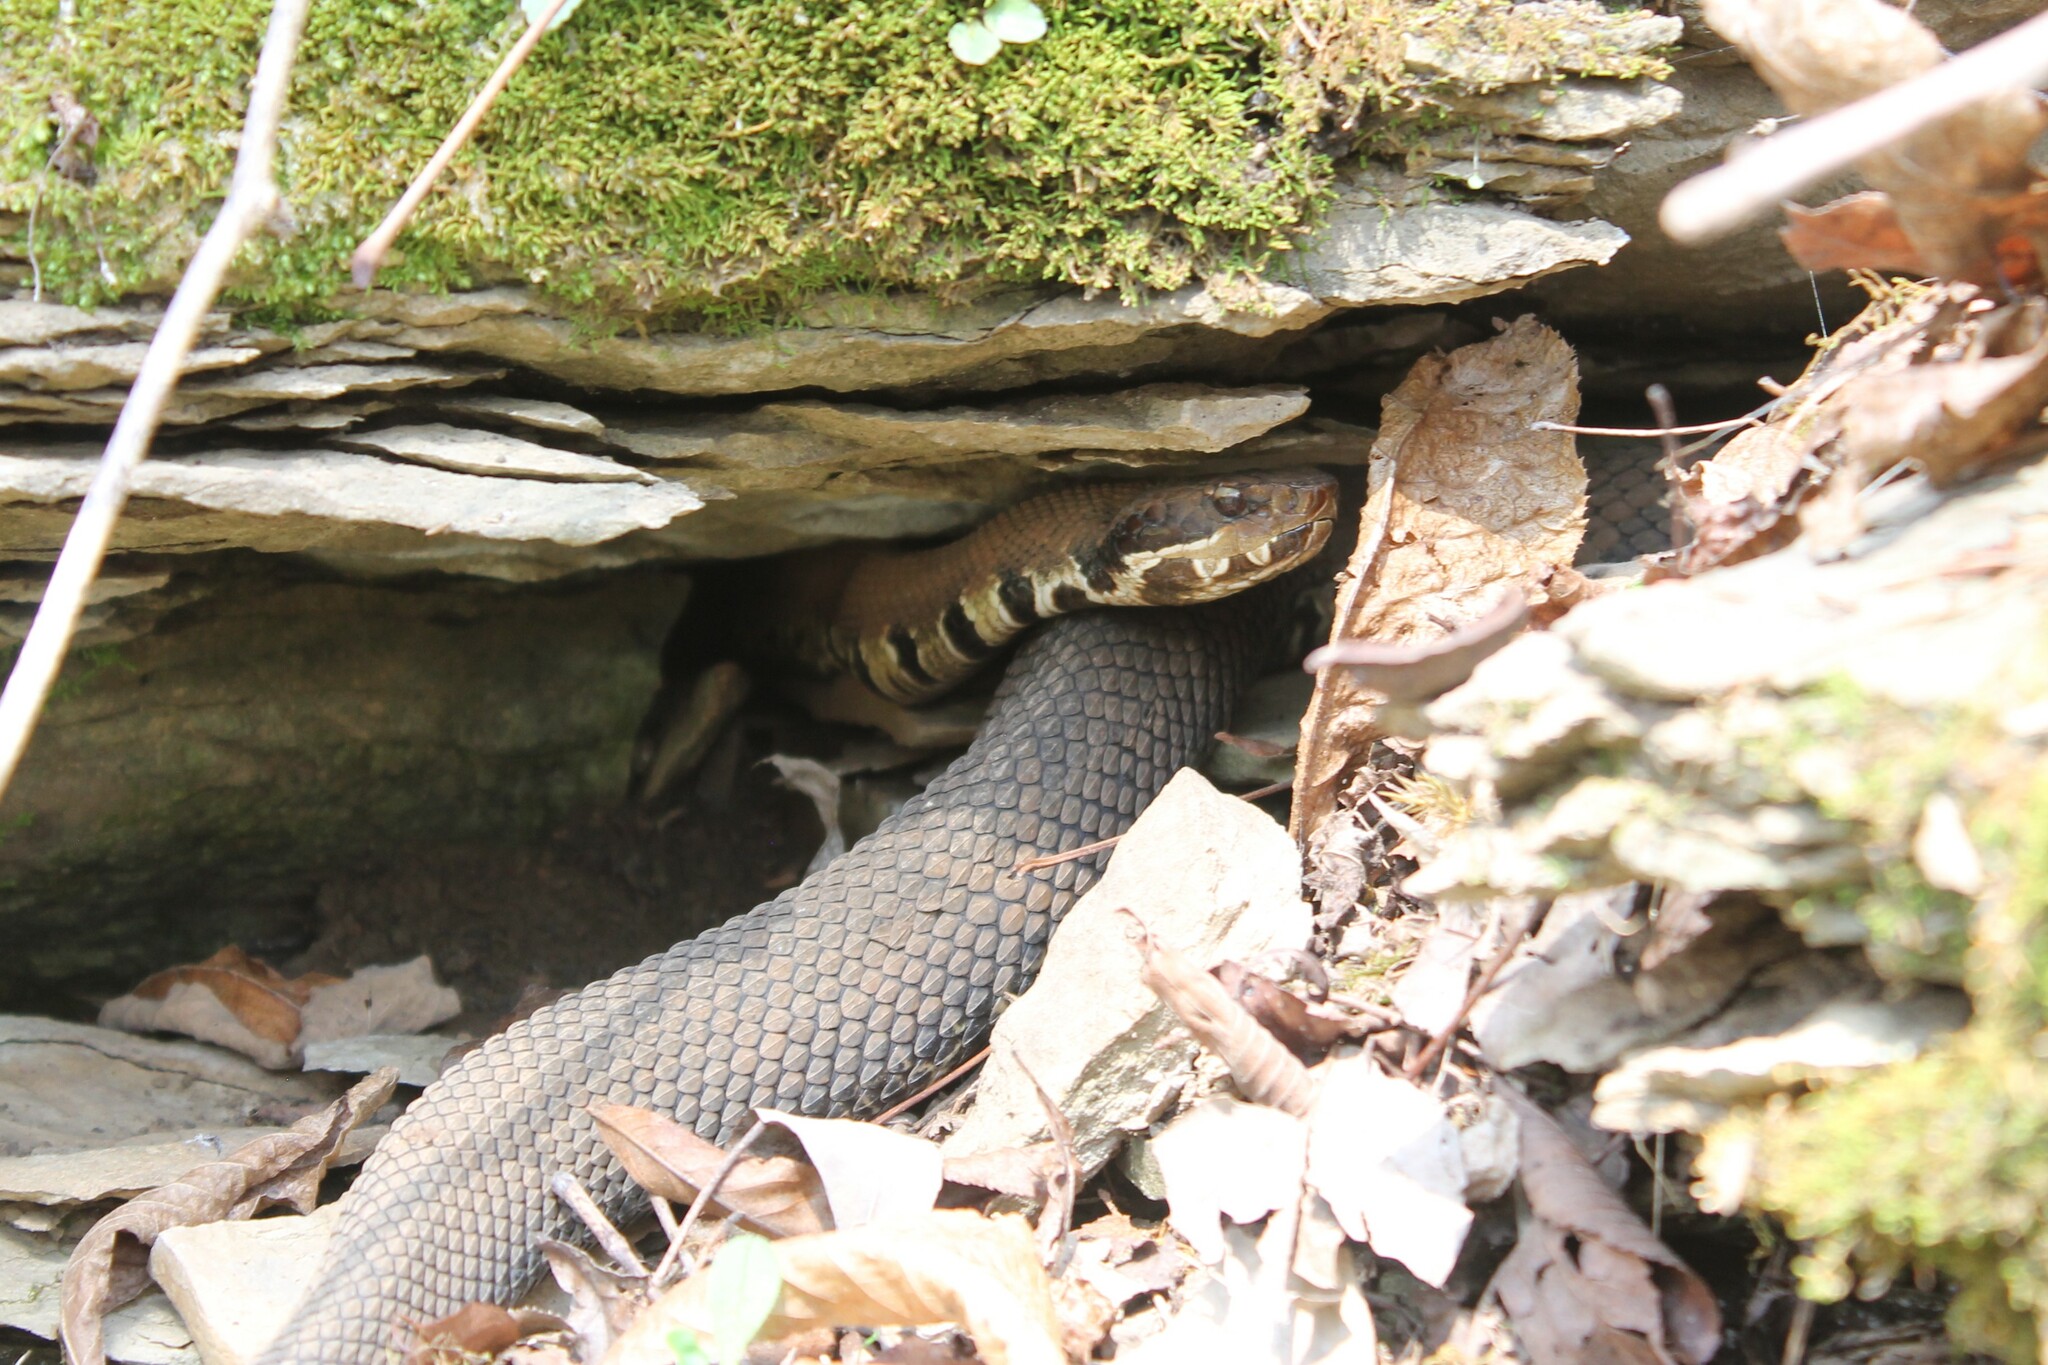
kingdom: Animalia
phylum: Chordata
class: Squamata
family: Viperidae
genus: Agkistrodon
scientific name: Agkistrodon piscivorus
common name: Cottonmouth
